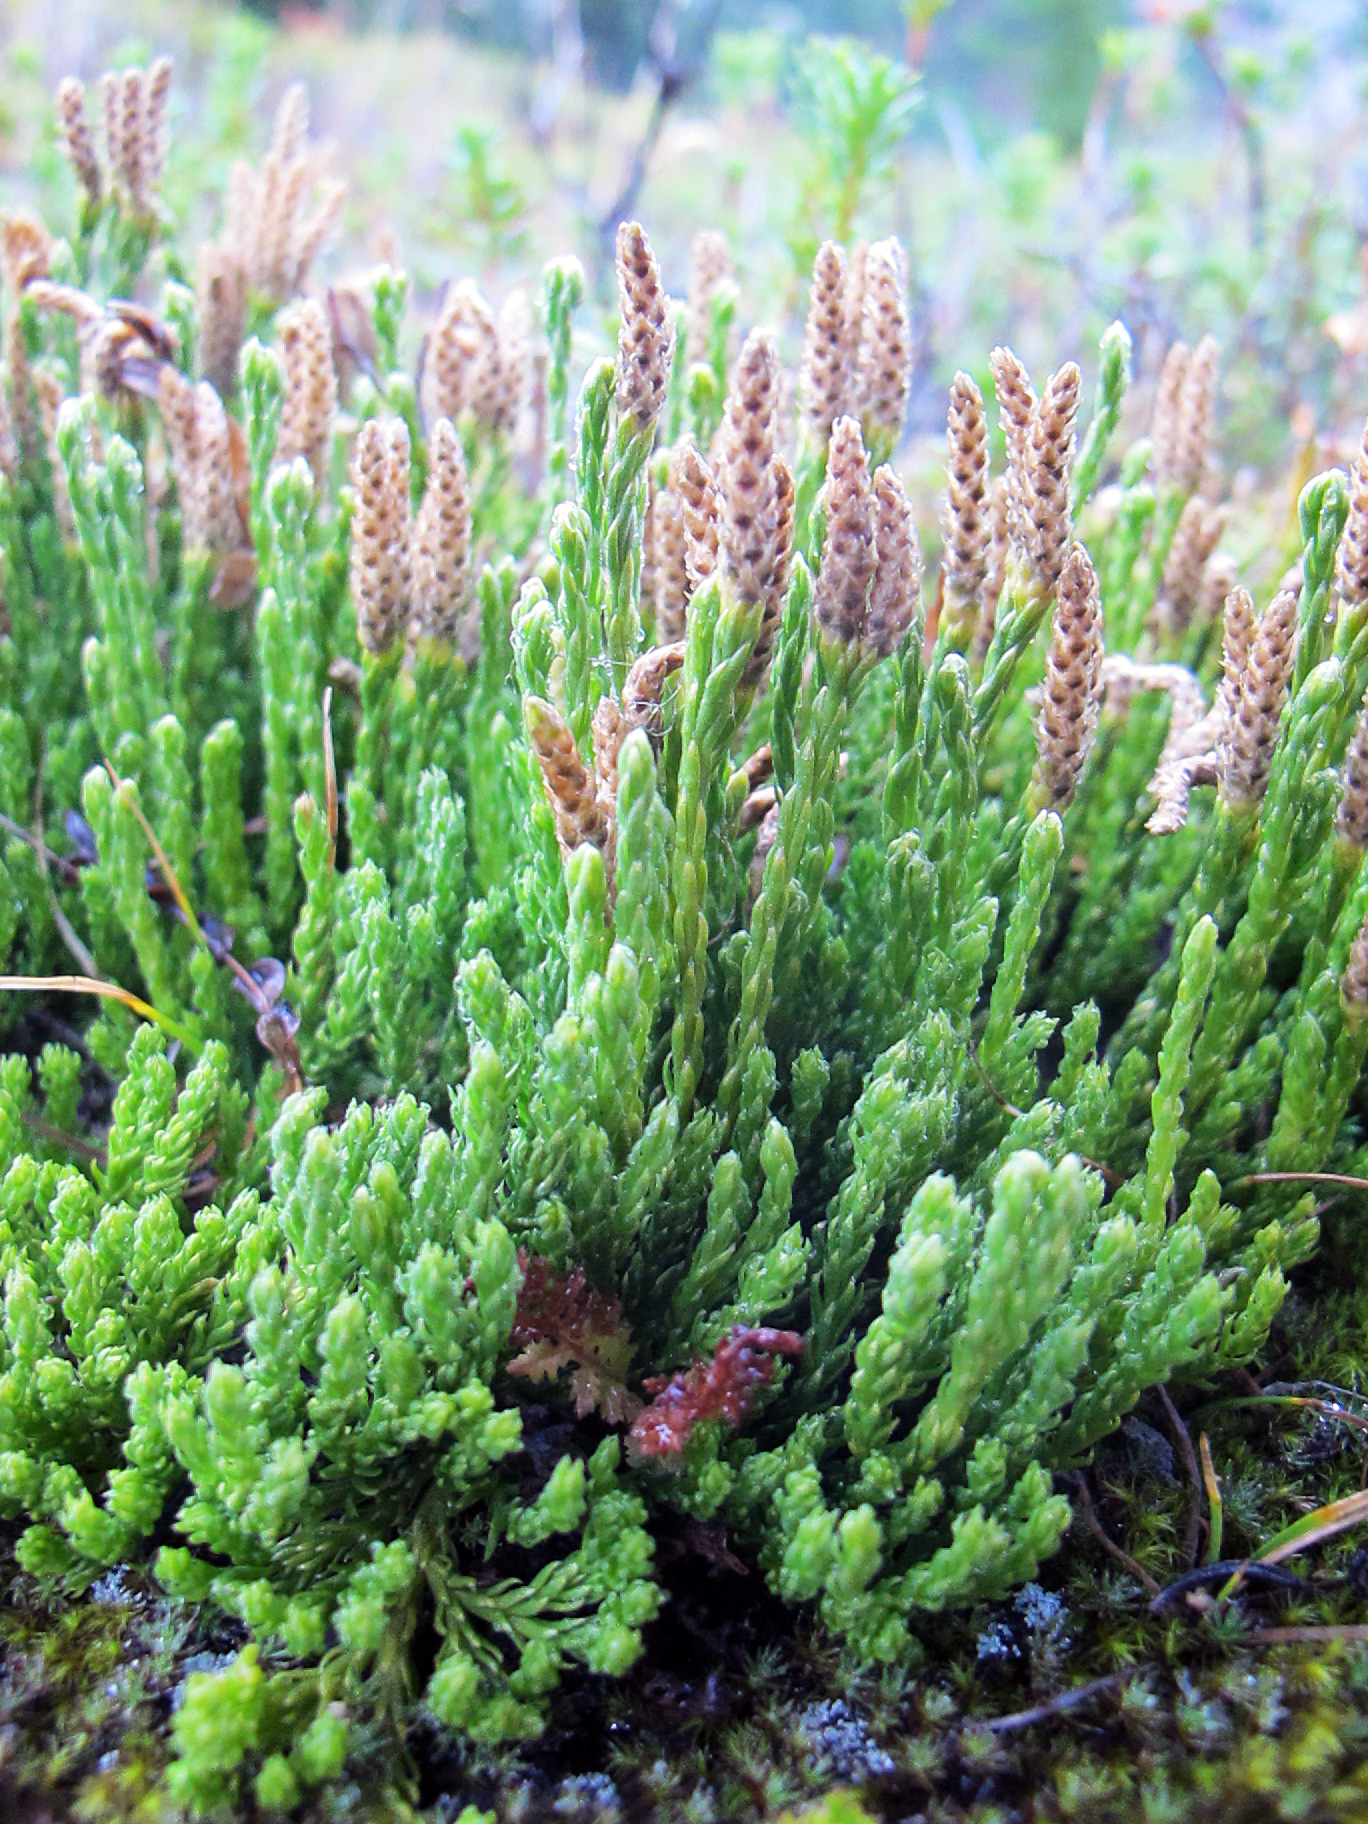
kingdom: Plantae
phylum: Tracheophyta
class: Lycopodiopsida
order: Lycopodiales
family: Lycopodiaceae
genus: Diphasiastrum
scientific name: Diphasiastrum sitchense
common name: Alaska clubmoss
